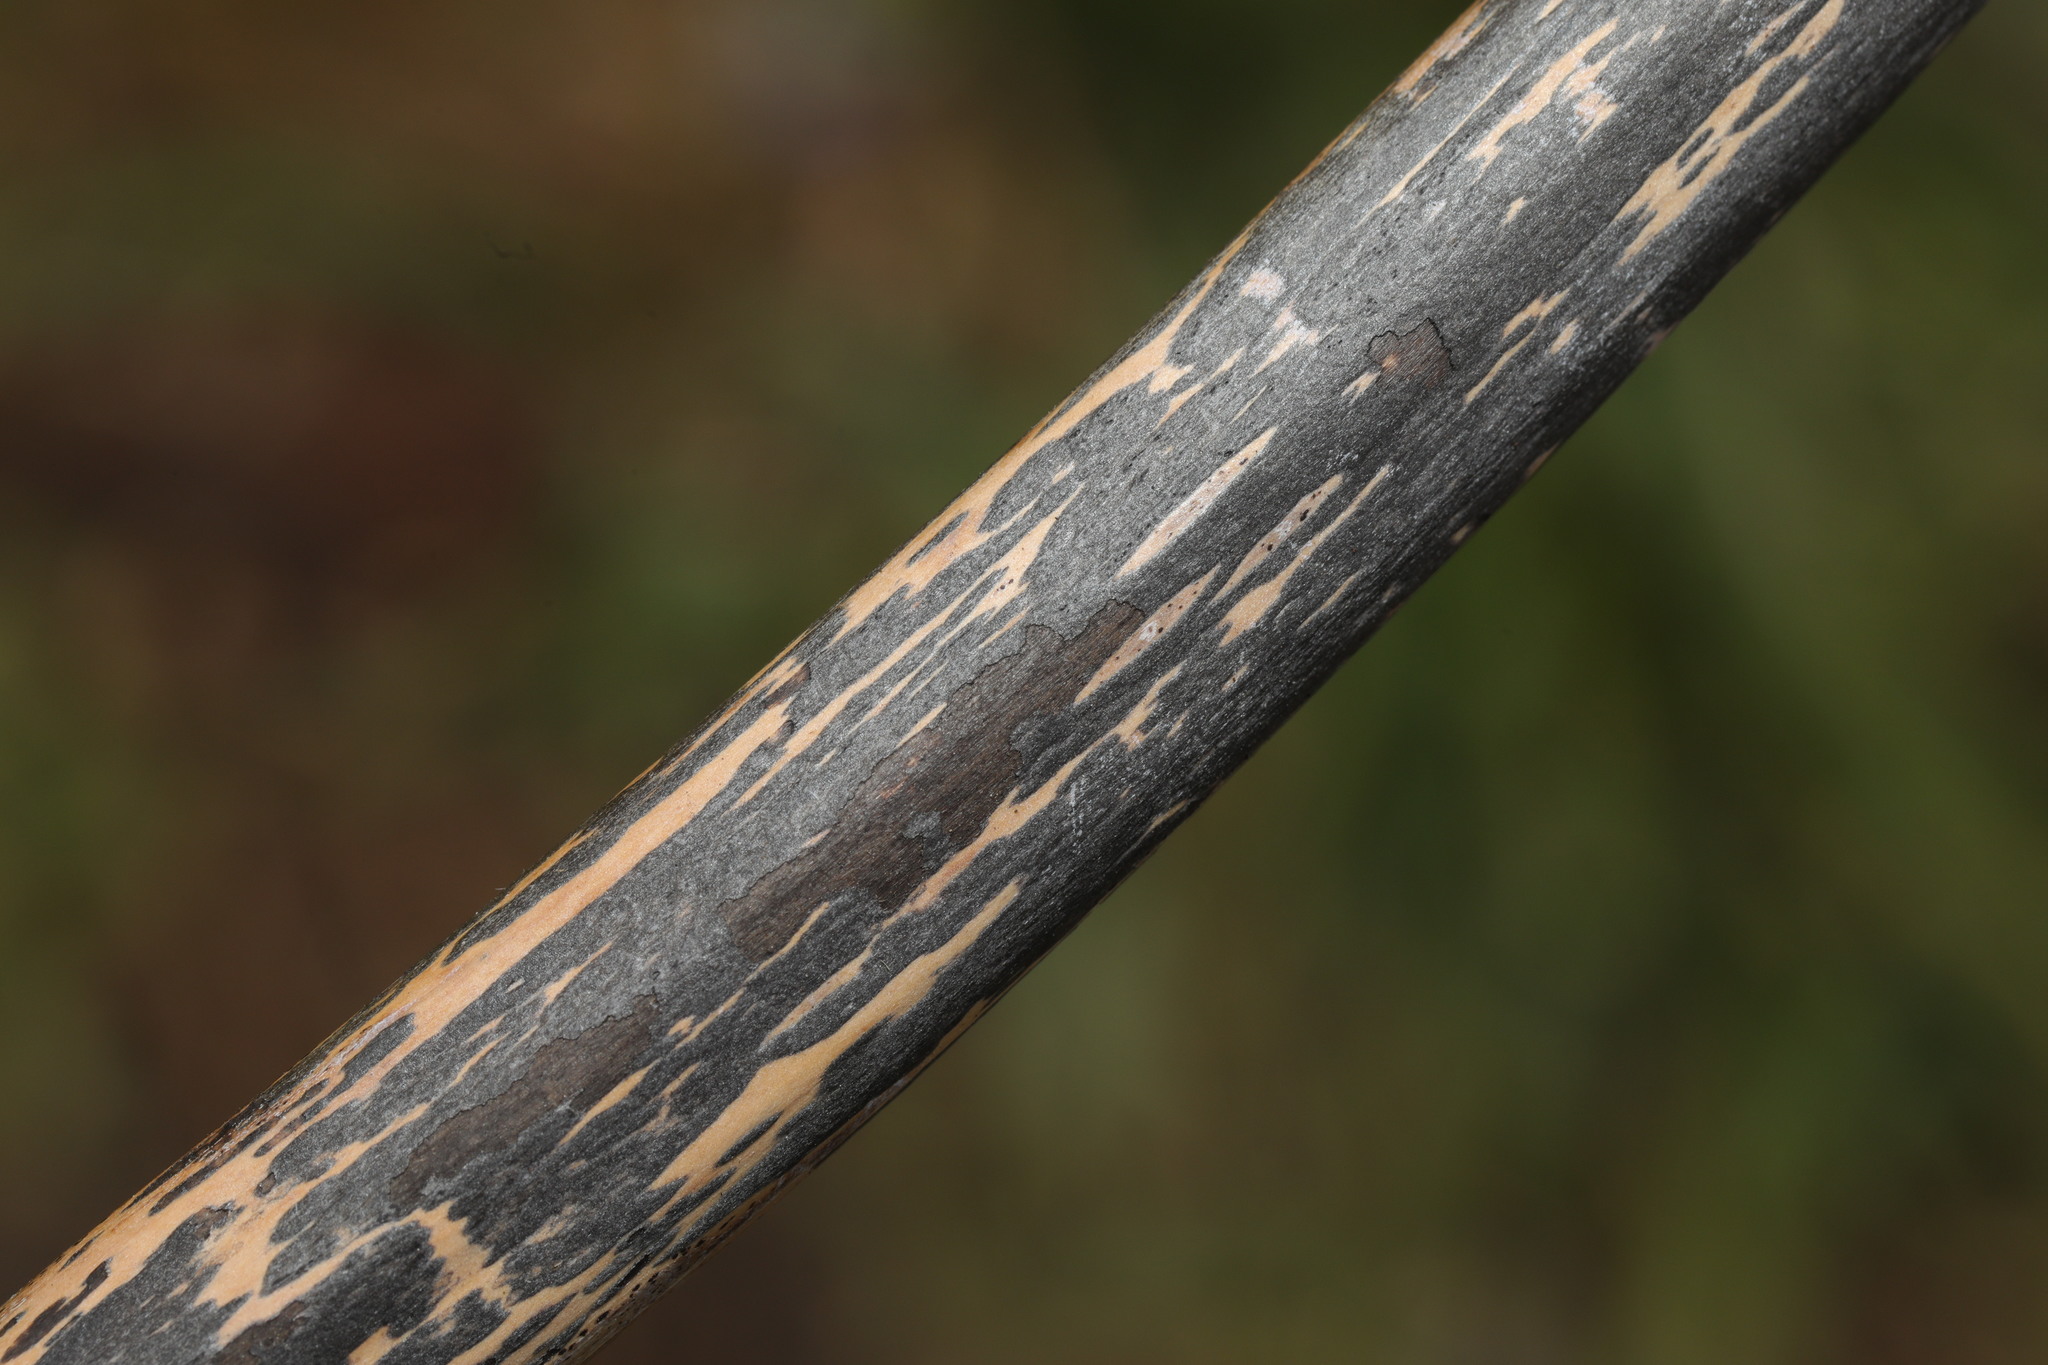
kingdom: Fungi
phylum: Ascomycota
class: Dothideomycetes
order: Pleosporales
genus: Rhopographus
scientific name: Rhopographus filicinus
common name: Bracken map
